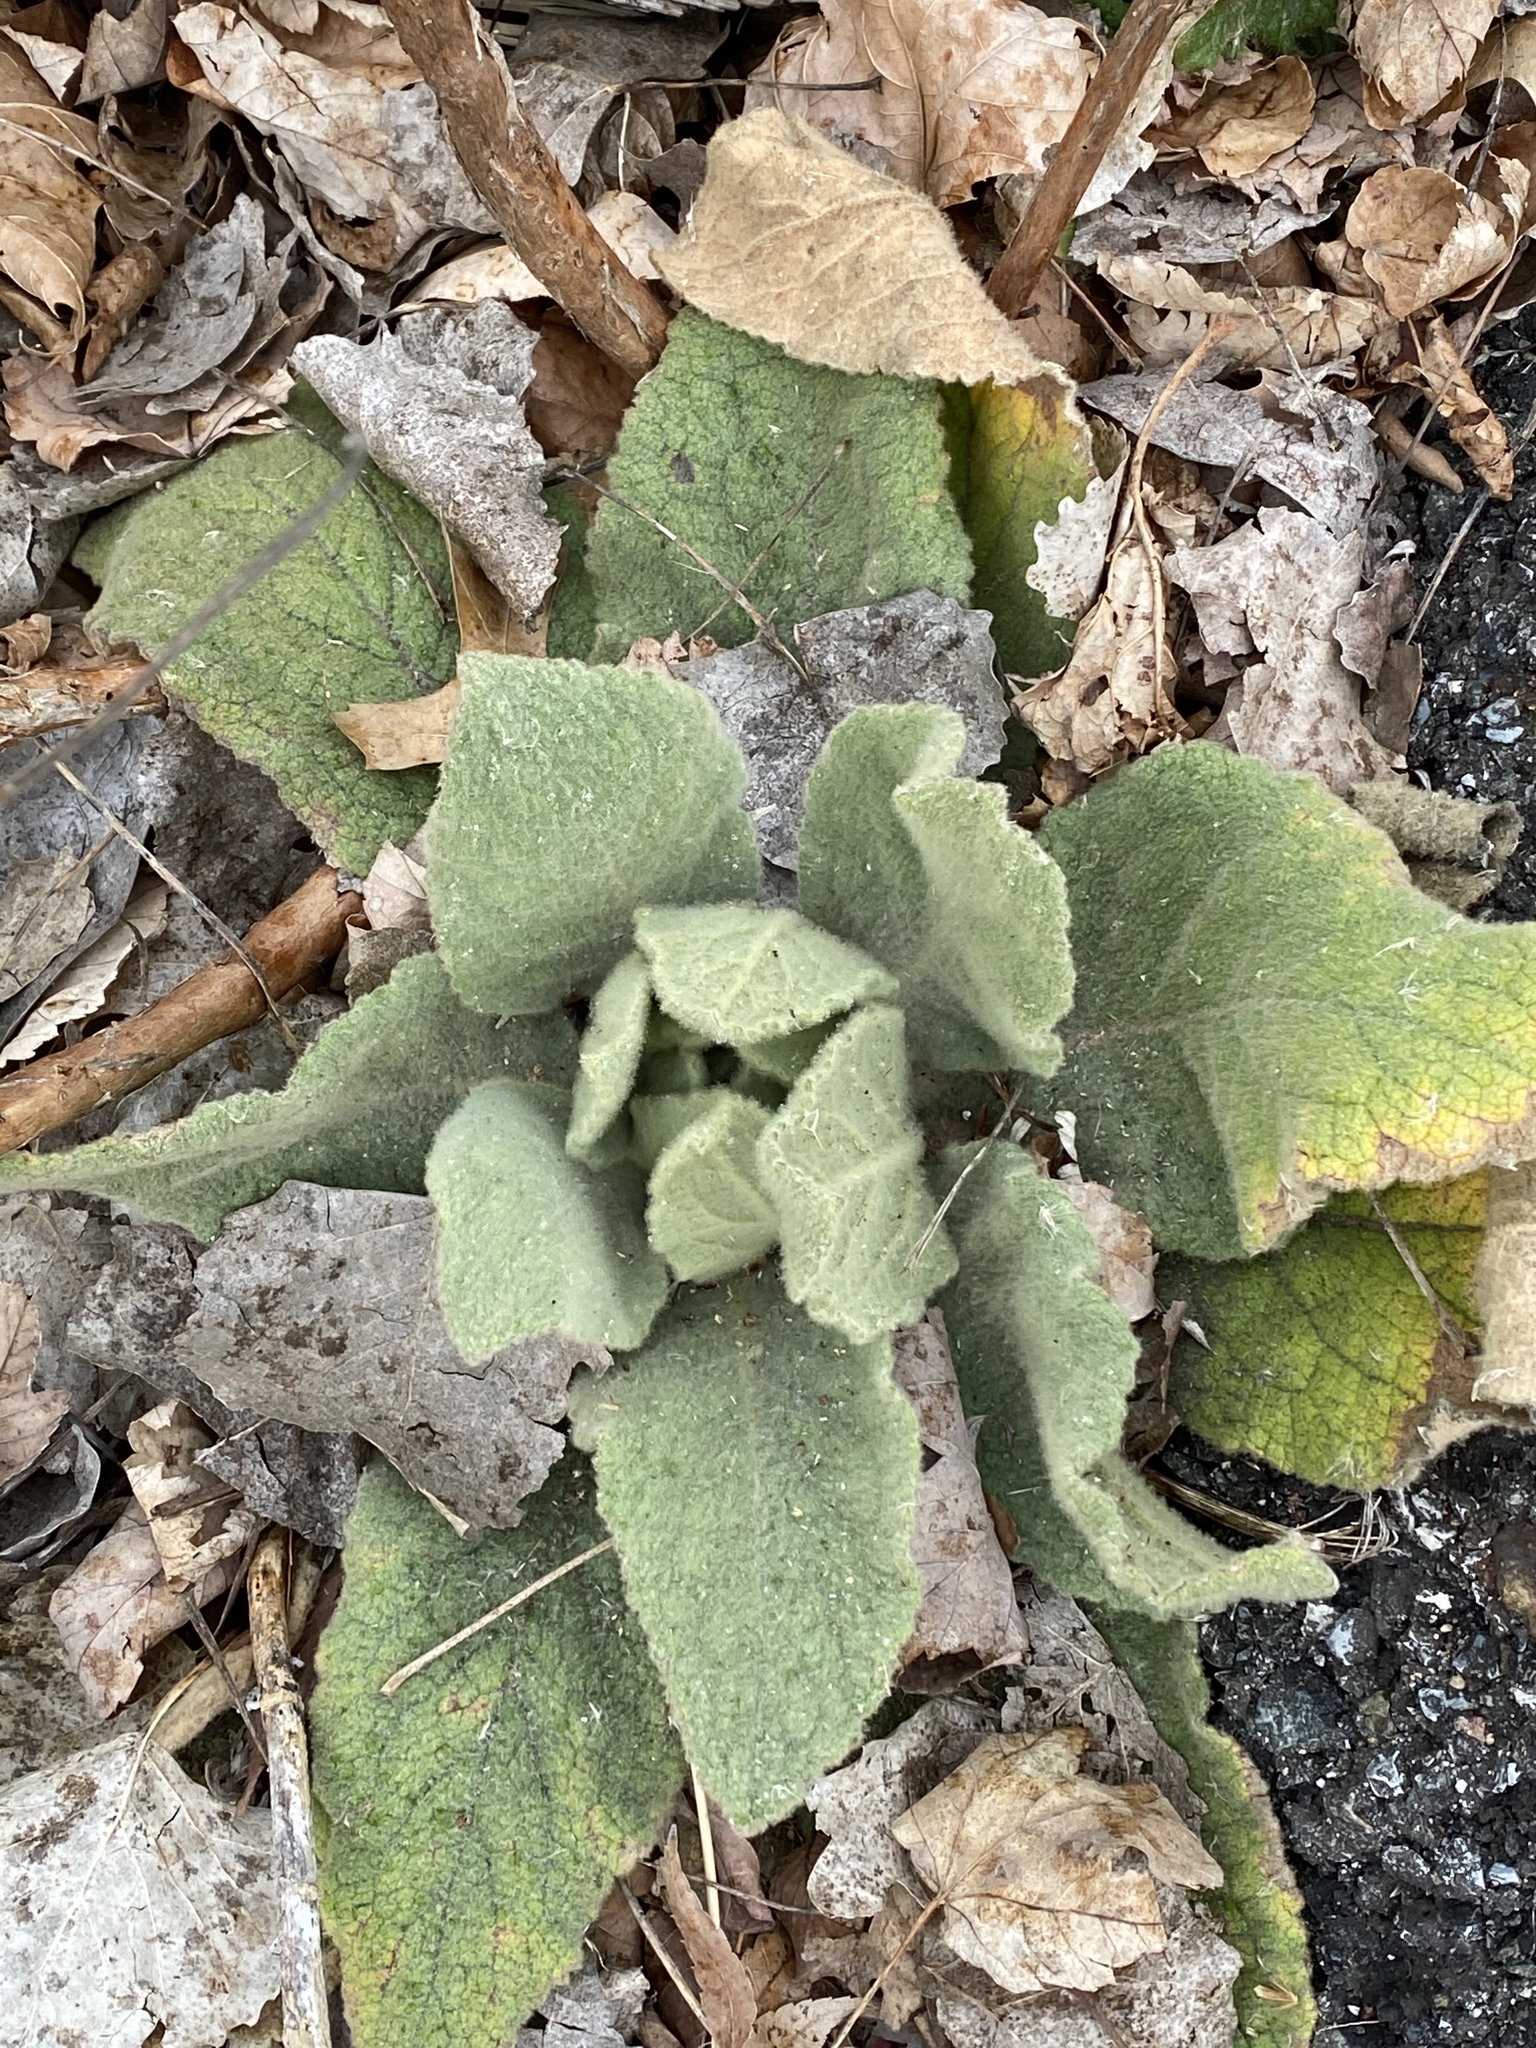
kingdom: Plantae
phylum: Tracheophyta
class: Magnoliopsida
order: Lamiales
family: Scrophulariaceae
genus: Verbascum
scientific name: Verbascum thapsus
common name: Common mullein
